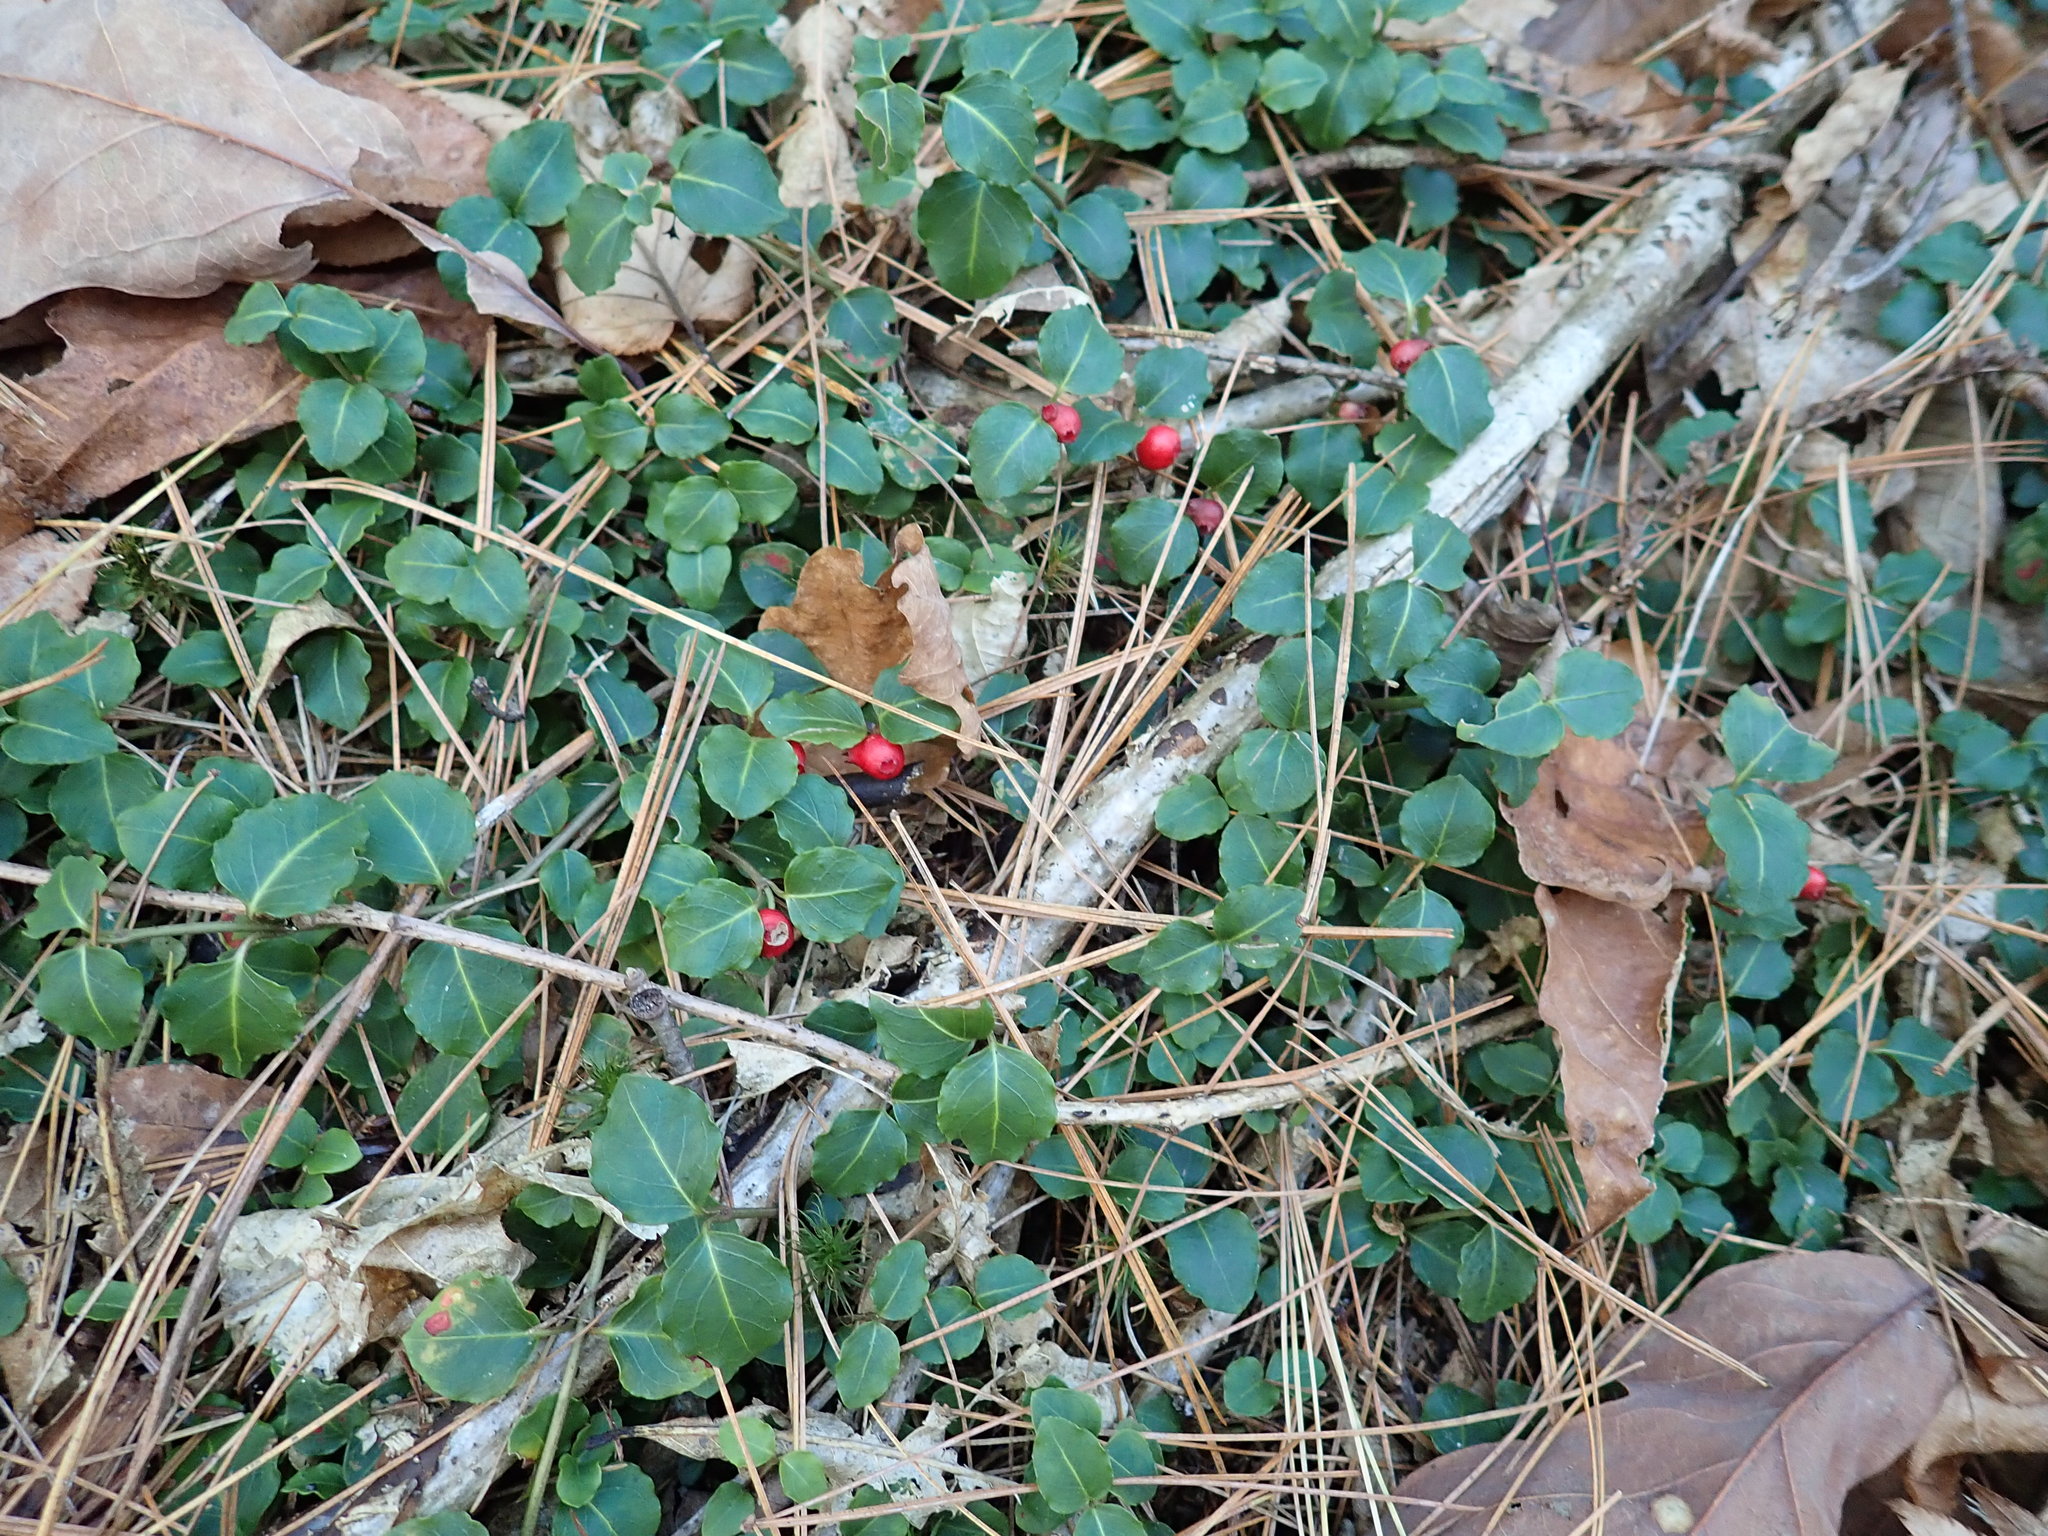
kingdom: Plantae
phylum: Tracheophyta
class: Magnoliopsida
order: Gentianales
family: Rubiaceae
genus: Mitchella
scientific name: Mitchella repens
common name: Partridge-berry
